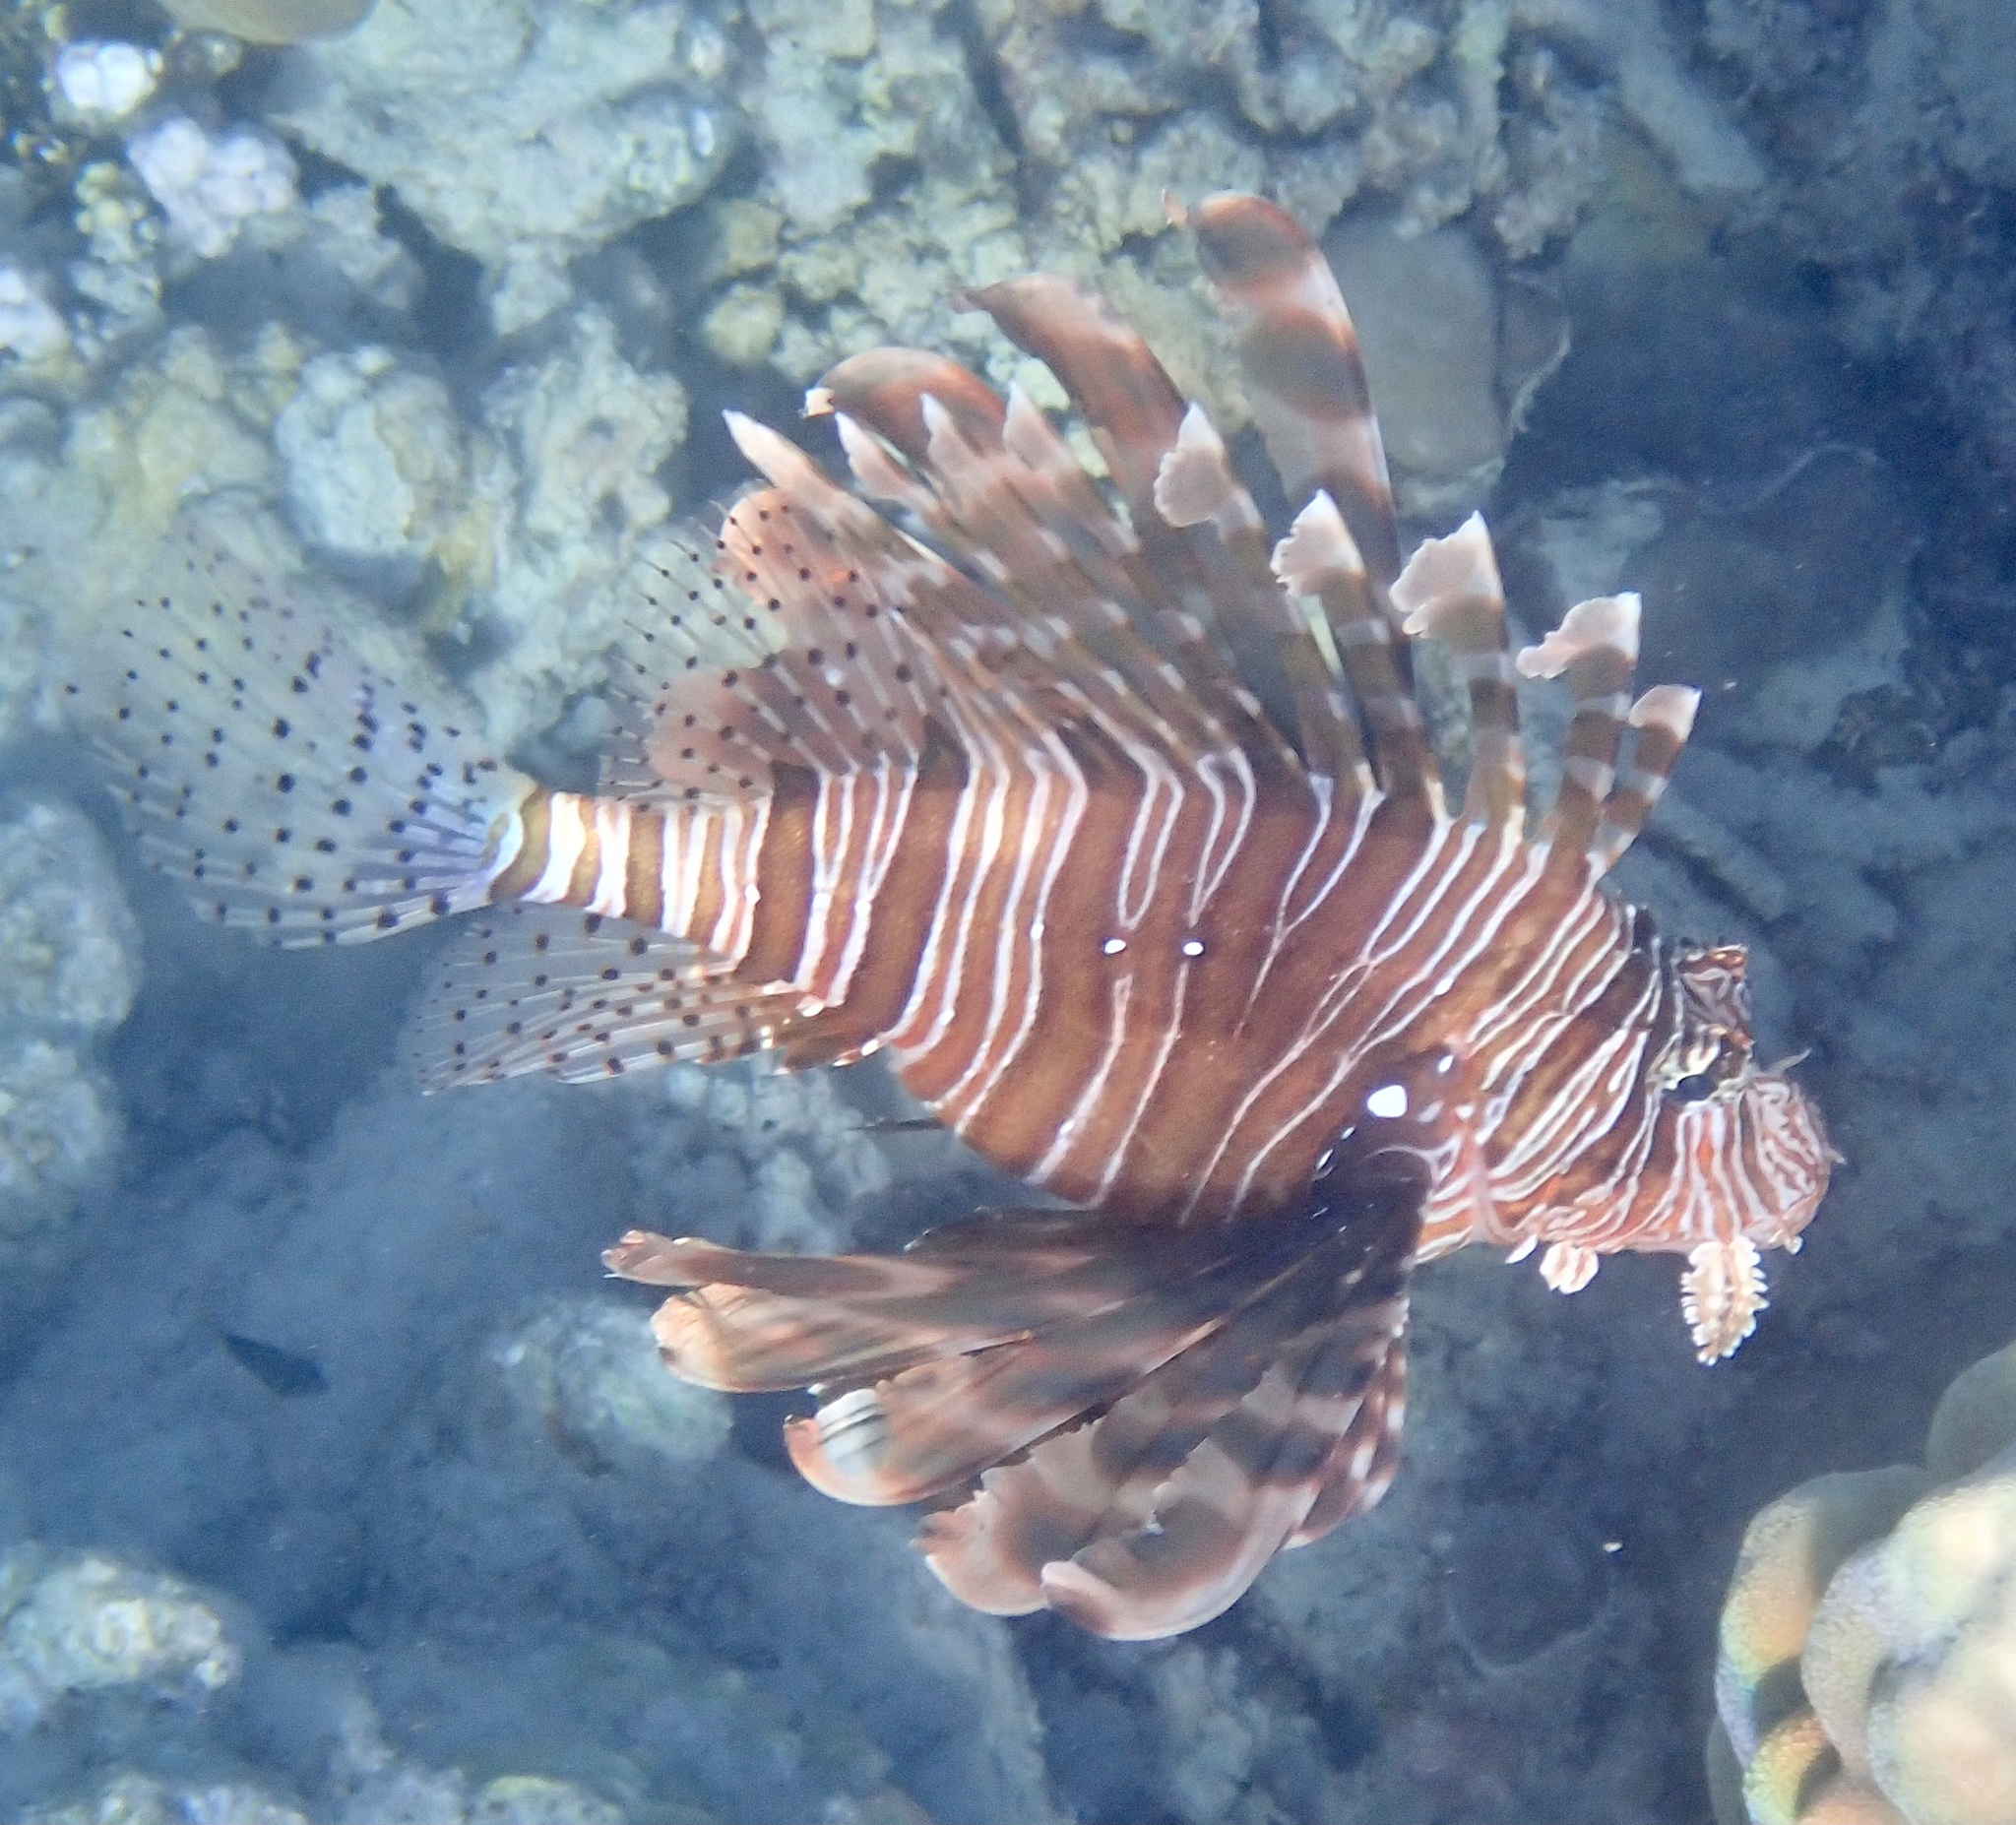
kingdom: Animalia
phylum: Chordata
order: Scorpaeniformes
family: Scorpaenidae
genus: Pterois
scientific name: Pterois miles
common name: Devil firefish
